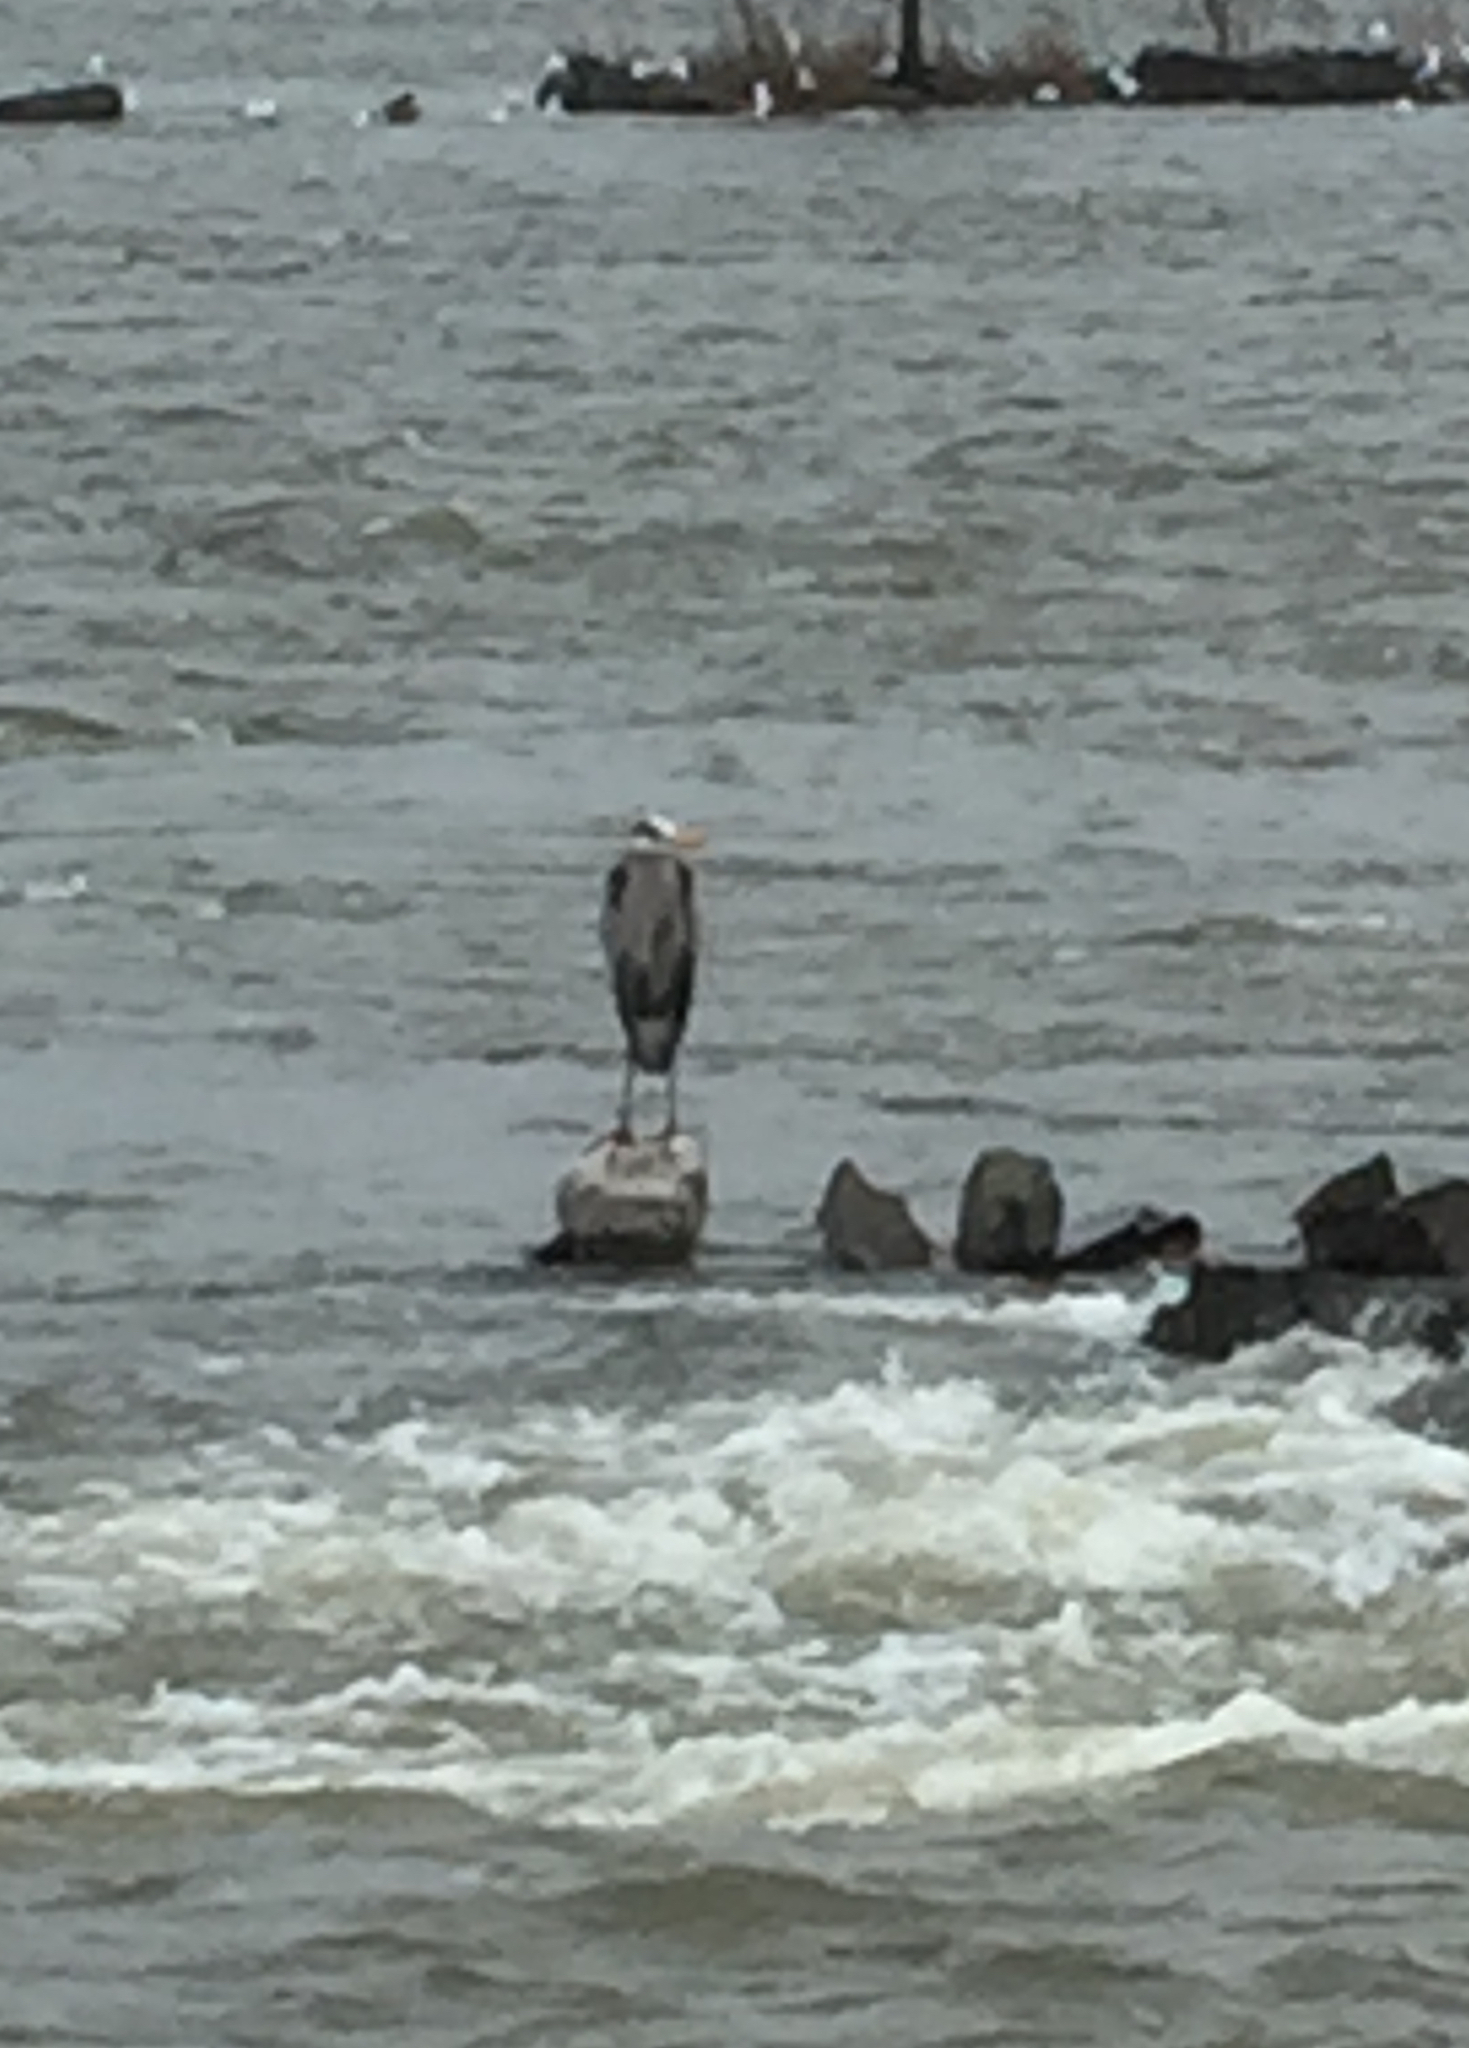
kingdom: Animalia
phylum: Chordata
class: Aves
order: Pelecaniformes
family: Ardeidae
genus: Ardea
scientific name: Ardea herodias
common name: Great blue heron
